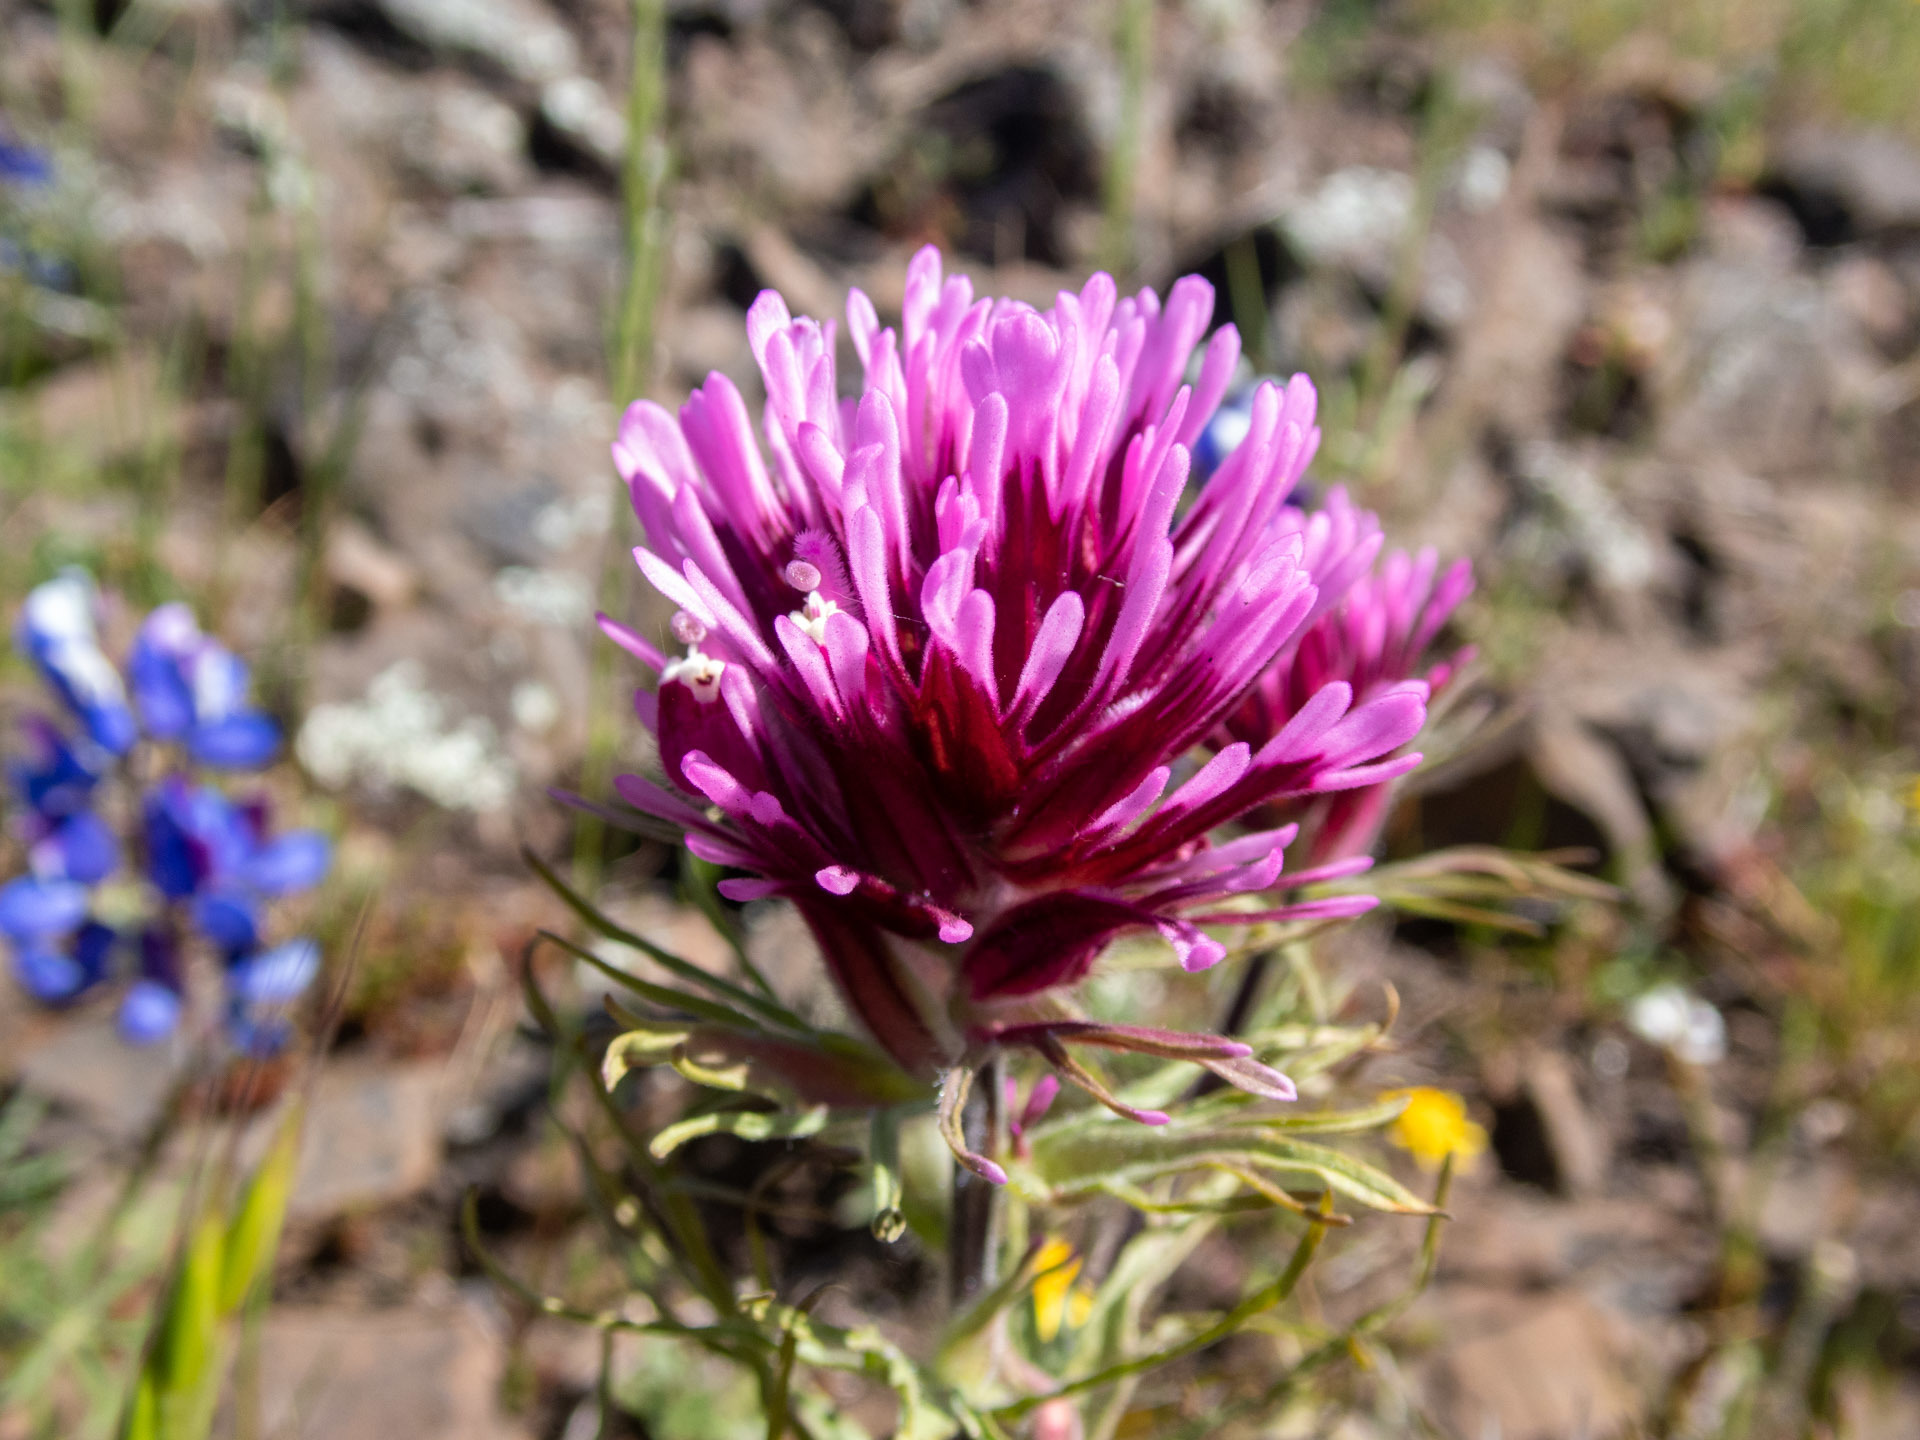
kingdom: Plantae
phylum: Tracheophyta
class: Magnoliopsida
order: Lamiales
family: Orobanchaceae
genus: Castilleja
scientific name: Castilleja exserta
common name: Purple owl-clover
